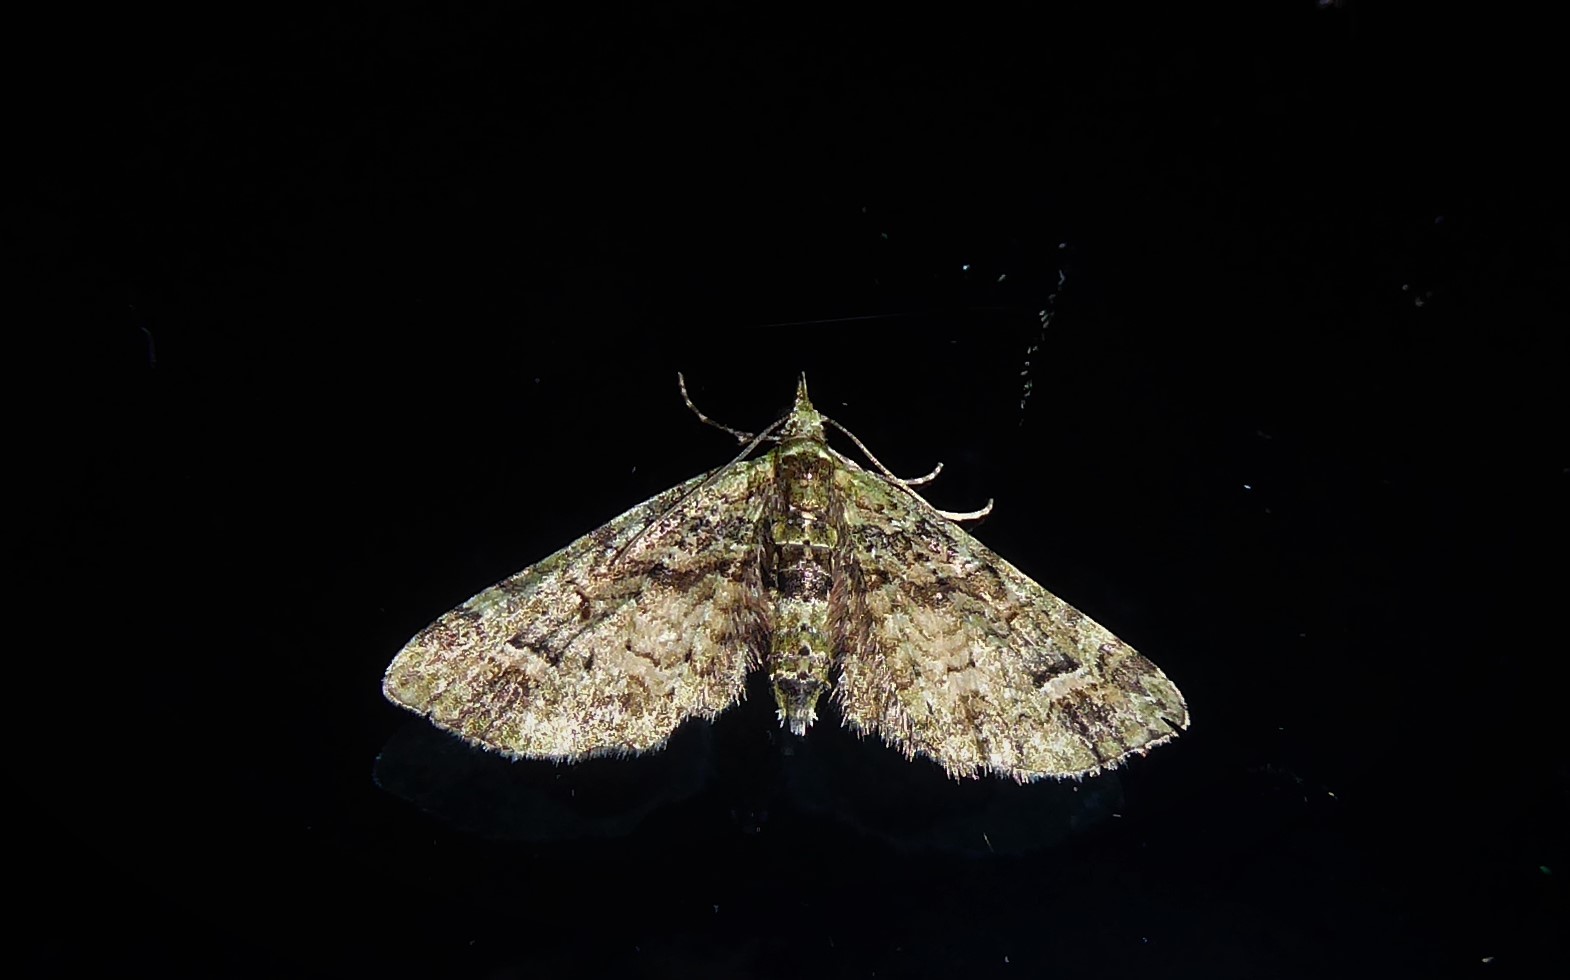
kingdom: Animalia
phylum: Arthropoda
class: Insecta
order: Lepidoptera
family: Geometridae
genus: Idaea
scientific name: Idaea mutanda
